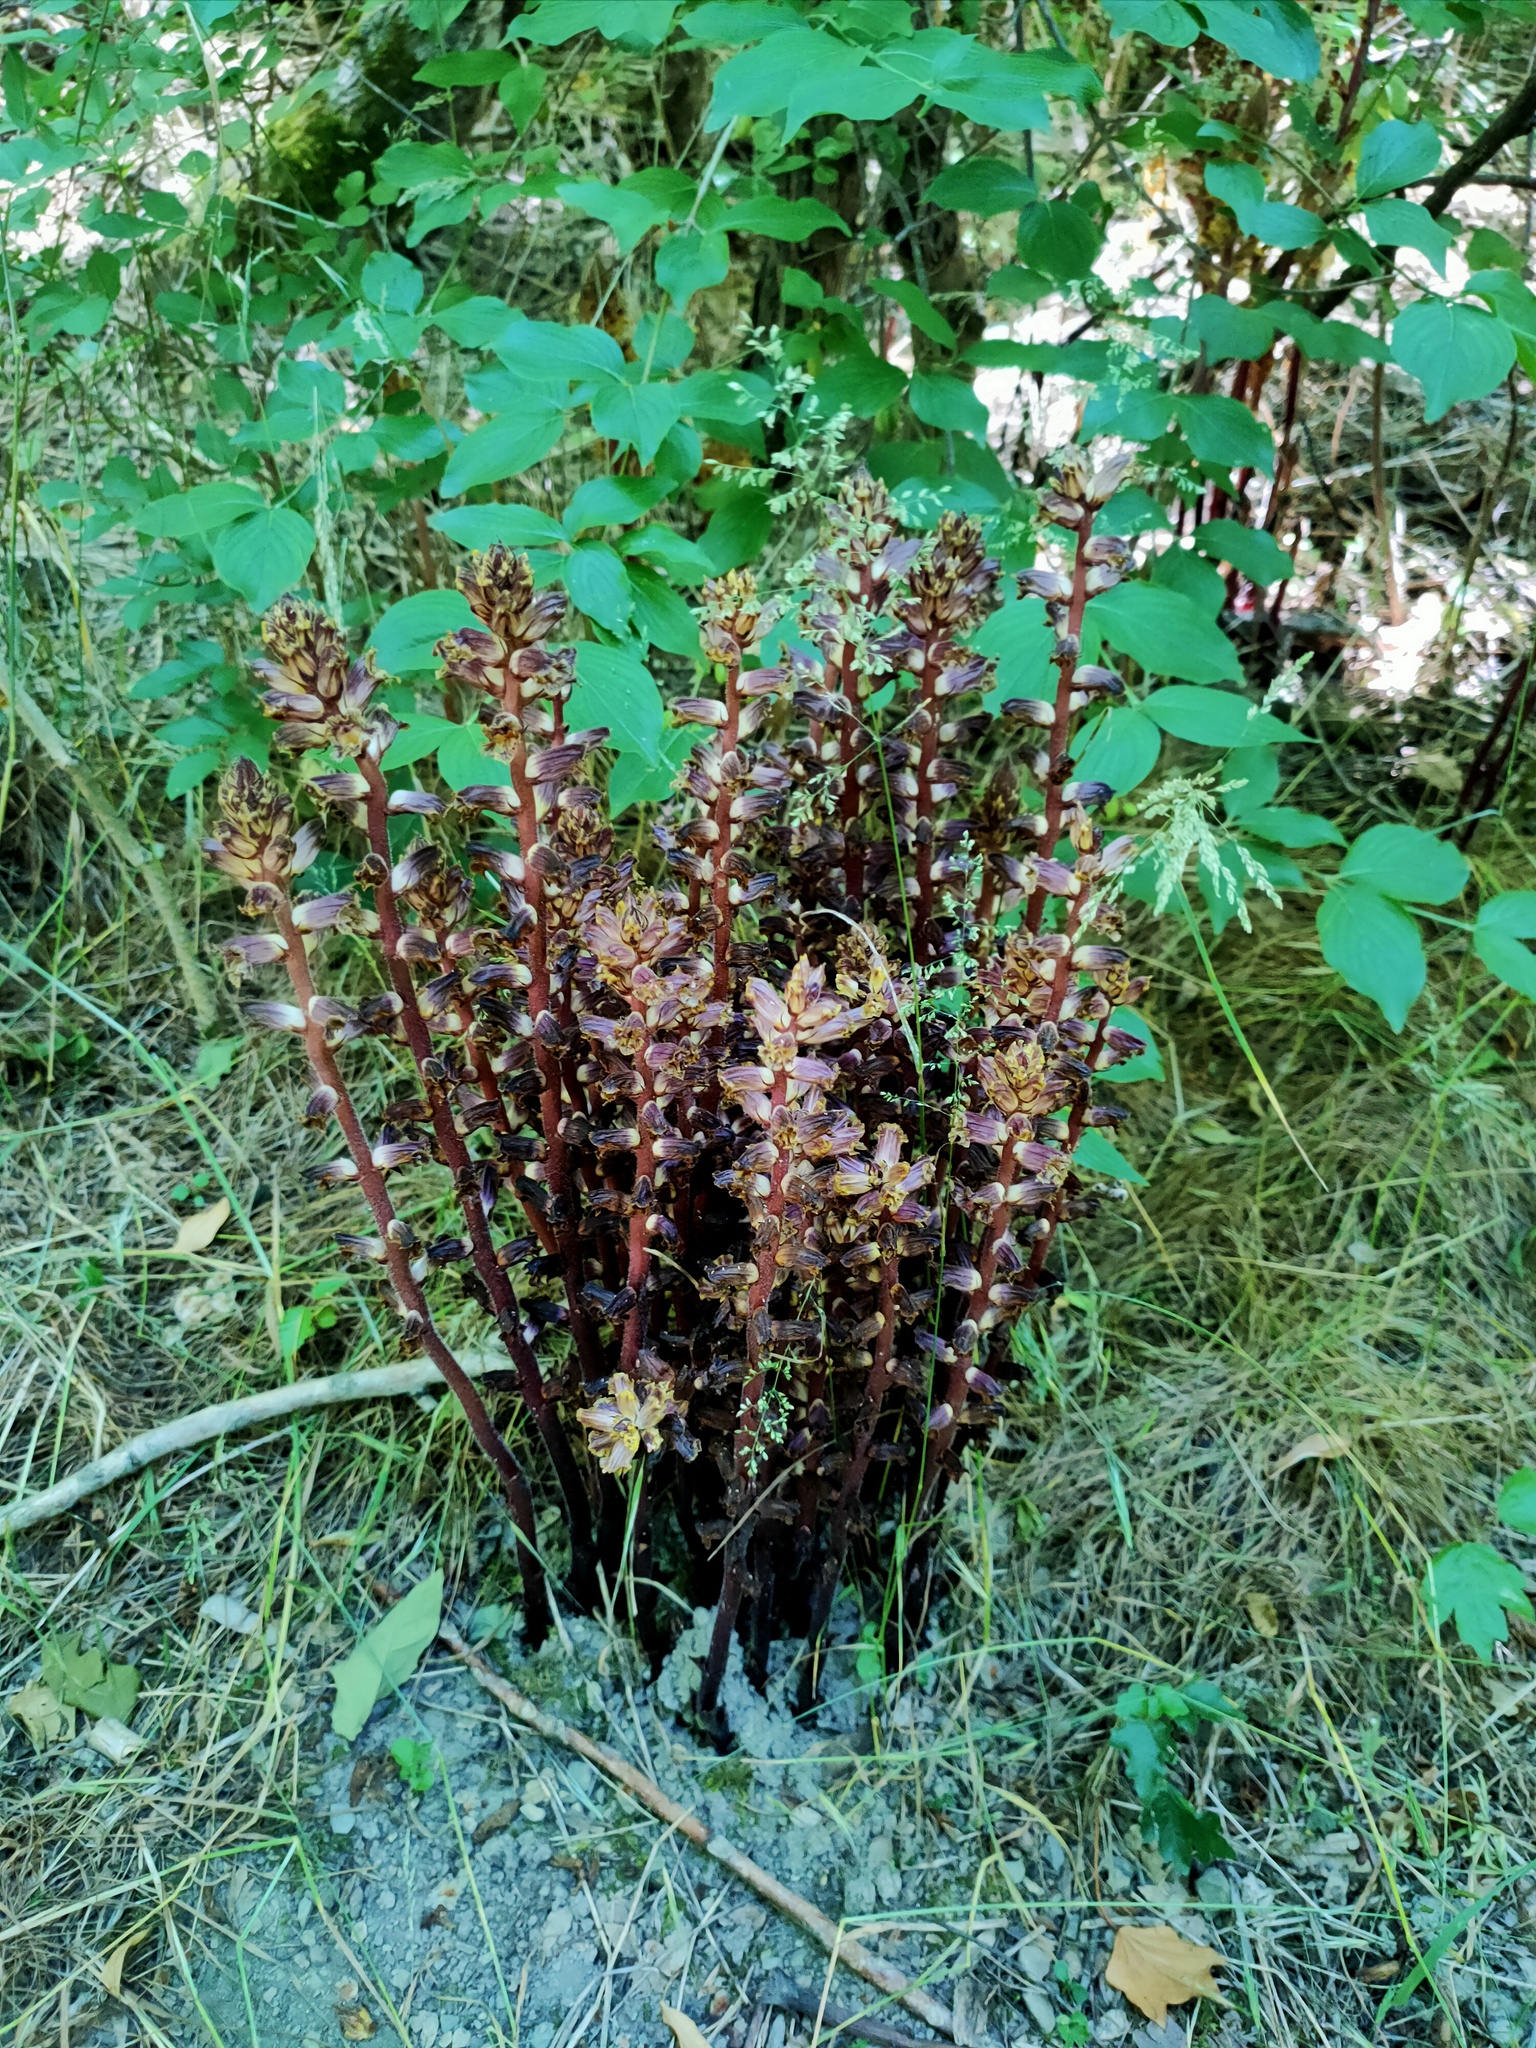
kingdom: Plantae
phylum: Tracheophyta
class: Magnoliopsida
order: Lamiales
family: Orobanchaceae
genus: Orobanche
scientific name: Orobanche laxissima
